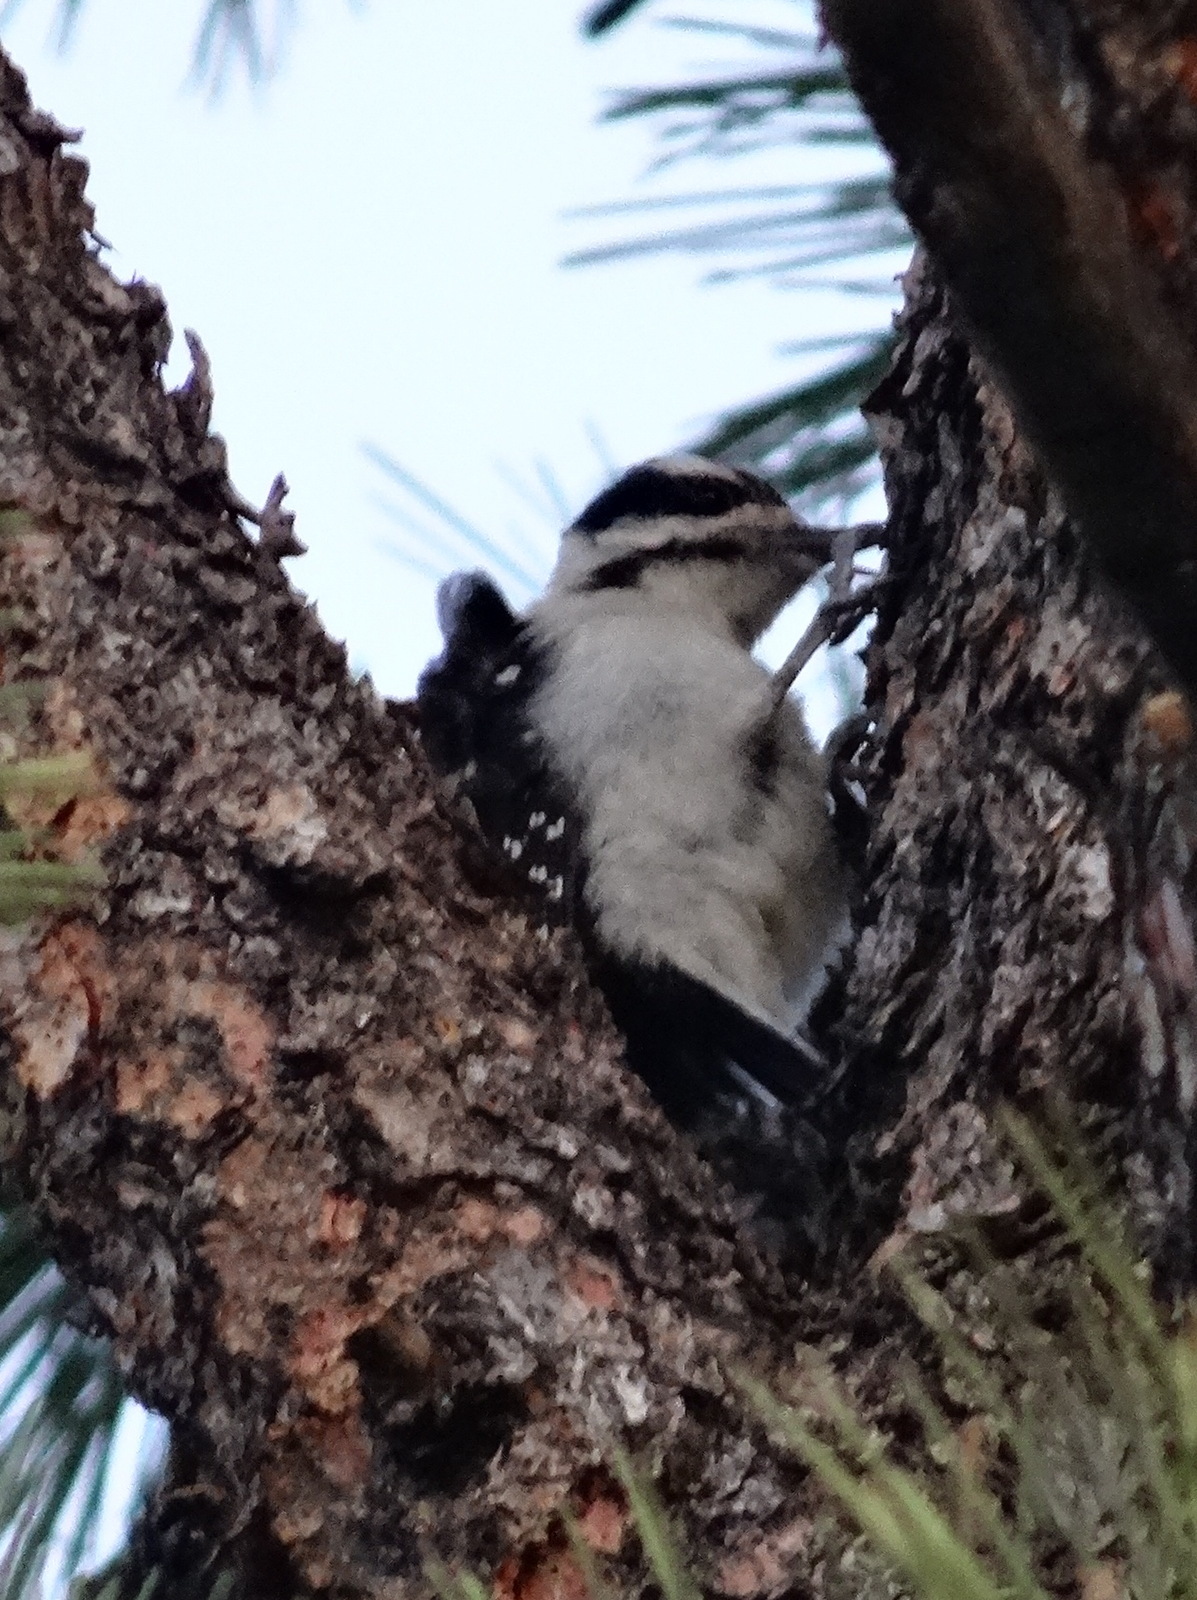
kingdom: Animalia
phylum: Chordata
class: Aves
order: Piciformes
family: Picidae
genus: Leuconotopicus
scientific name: Leuconotopicus villosus
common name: Hairy woodpecker
